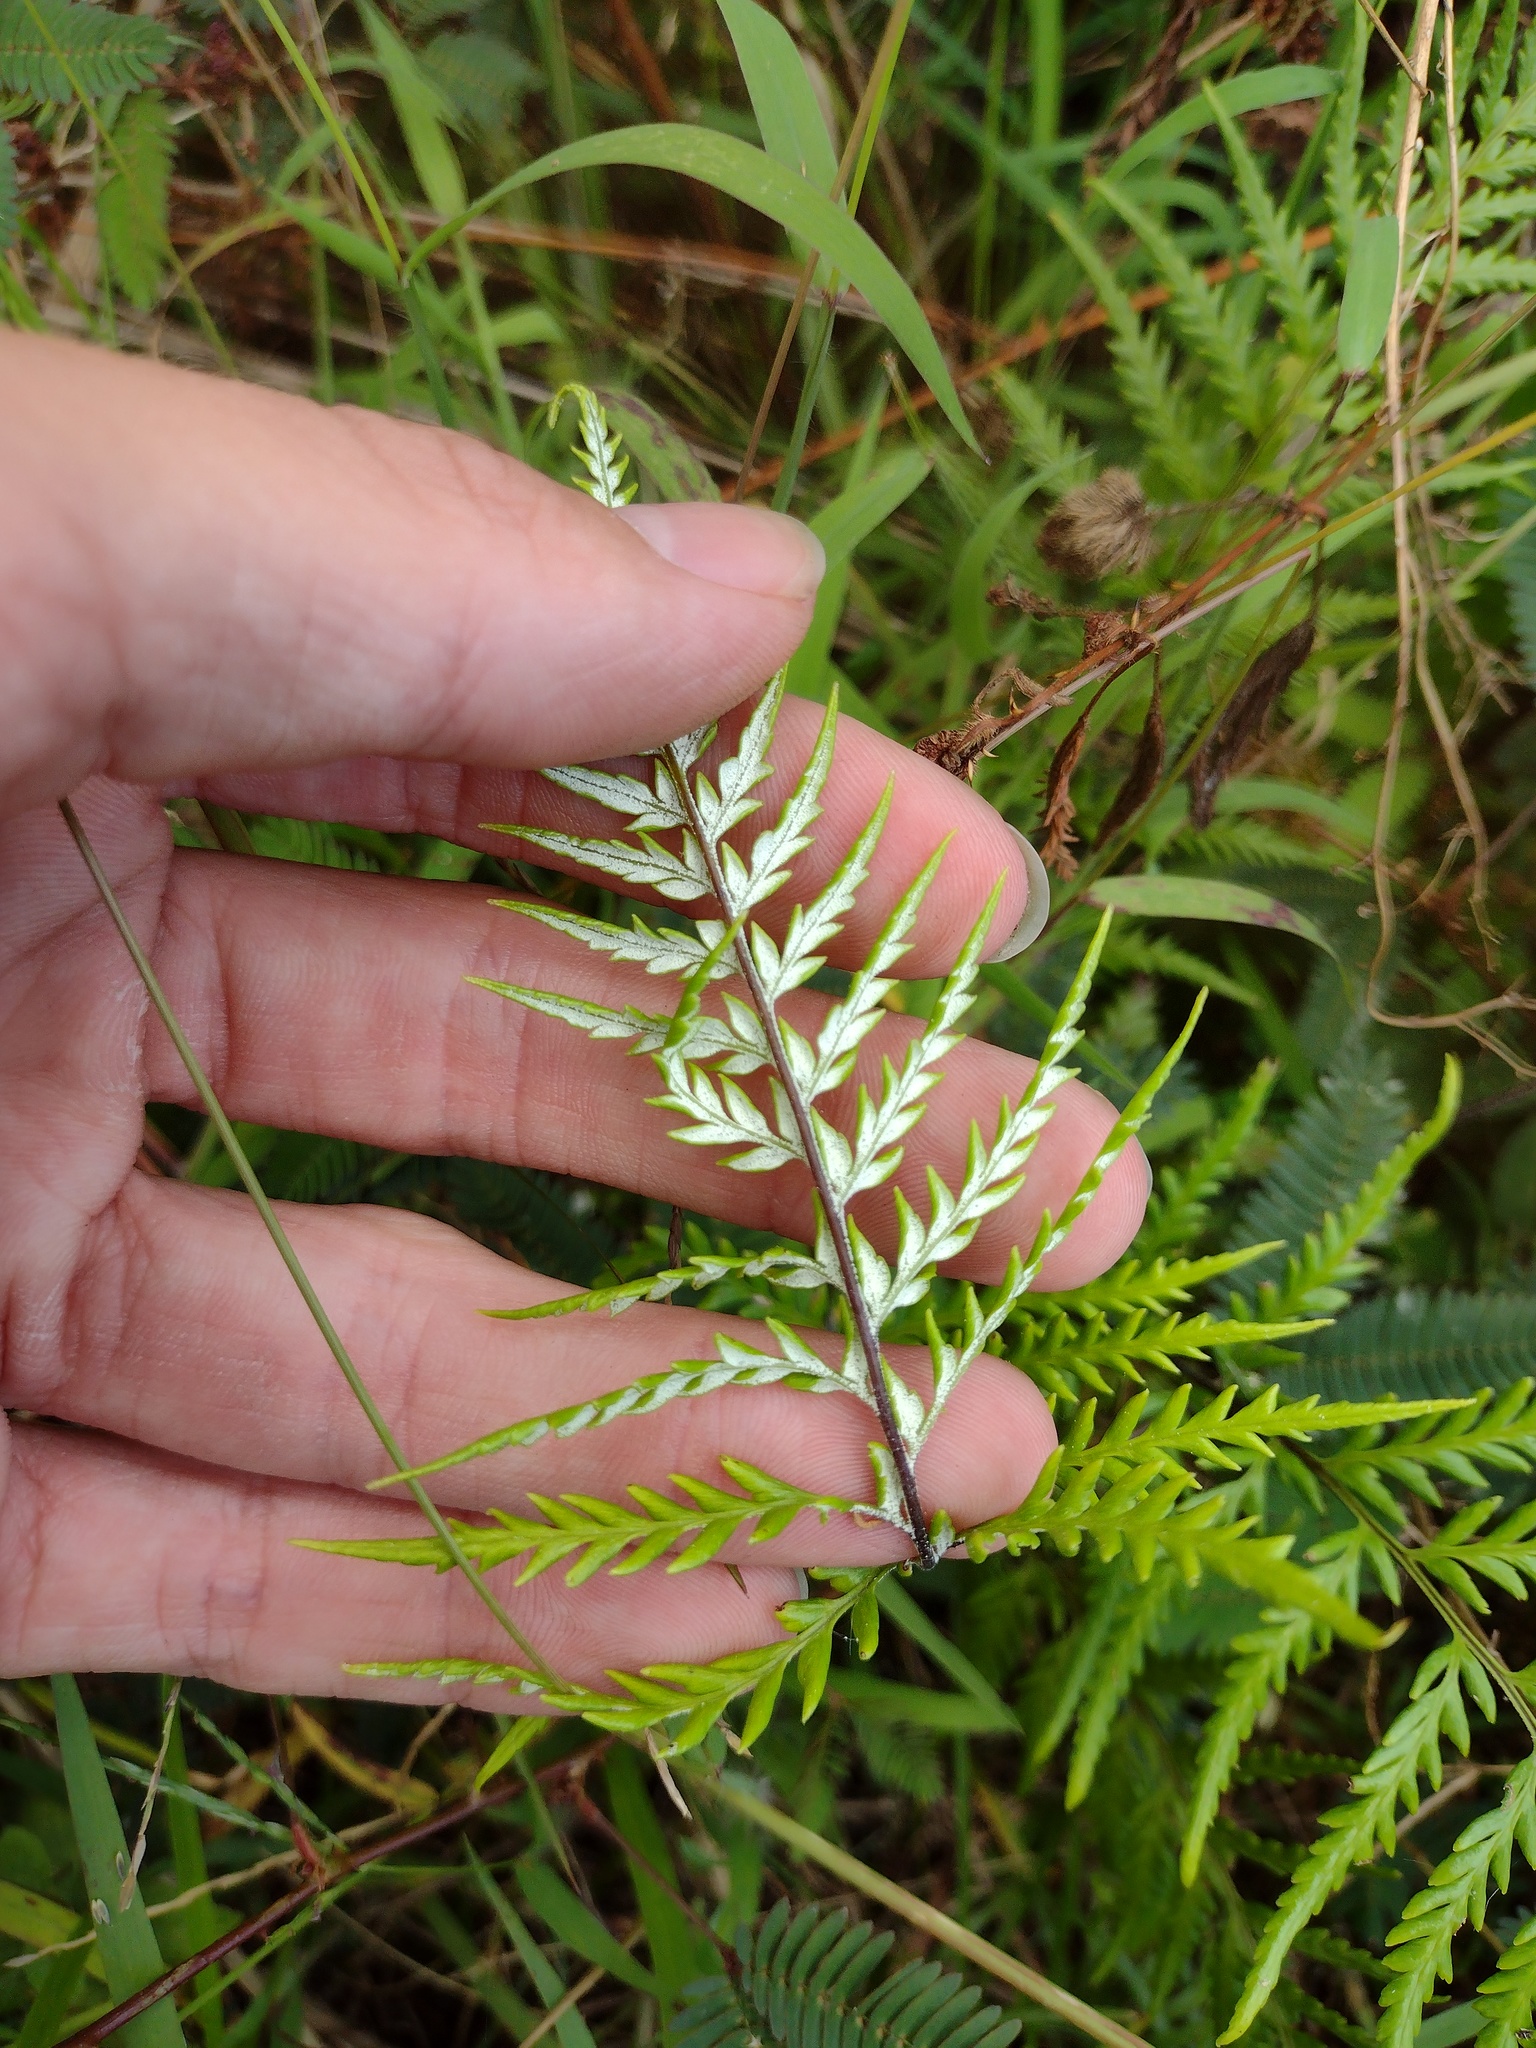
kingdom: Plantae
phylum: Tracheophyta
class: Polypodiopsida
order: Polypodiales
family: Pteridaceae
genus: Pityrogramma
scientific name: Pityrogramma calomelanos
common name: Dixie silverback fern
